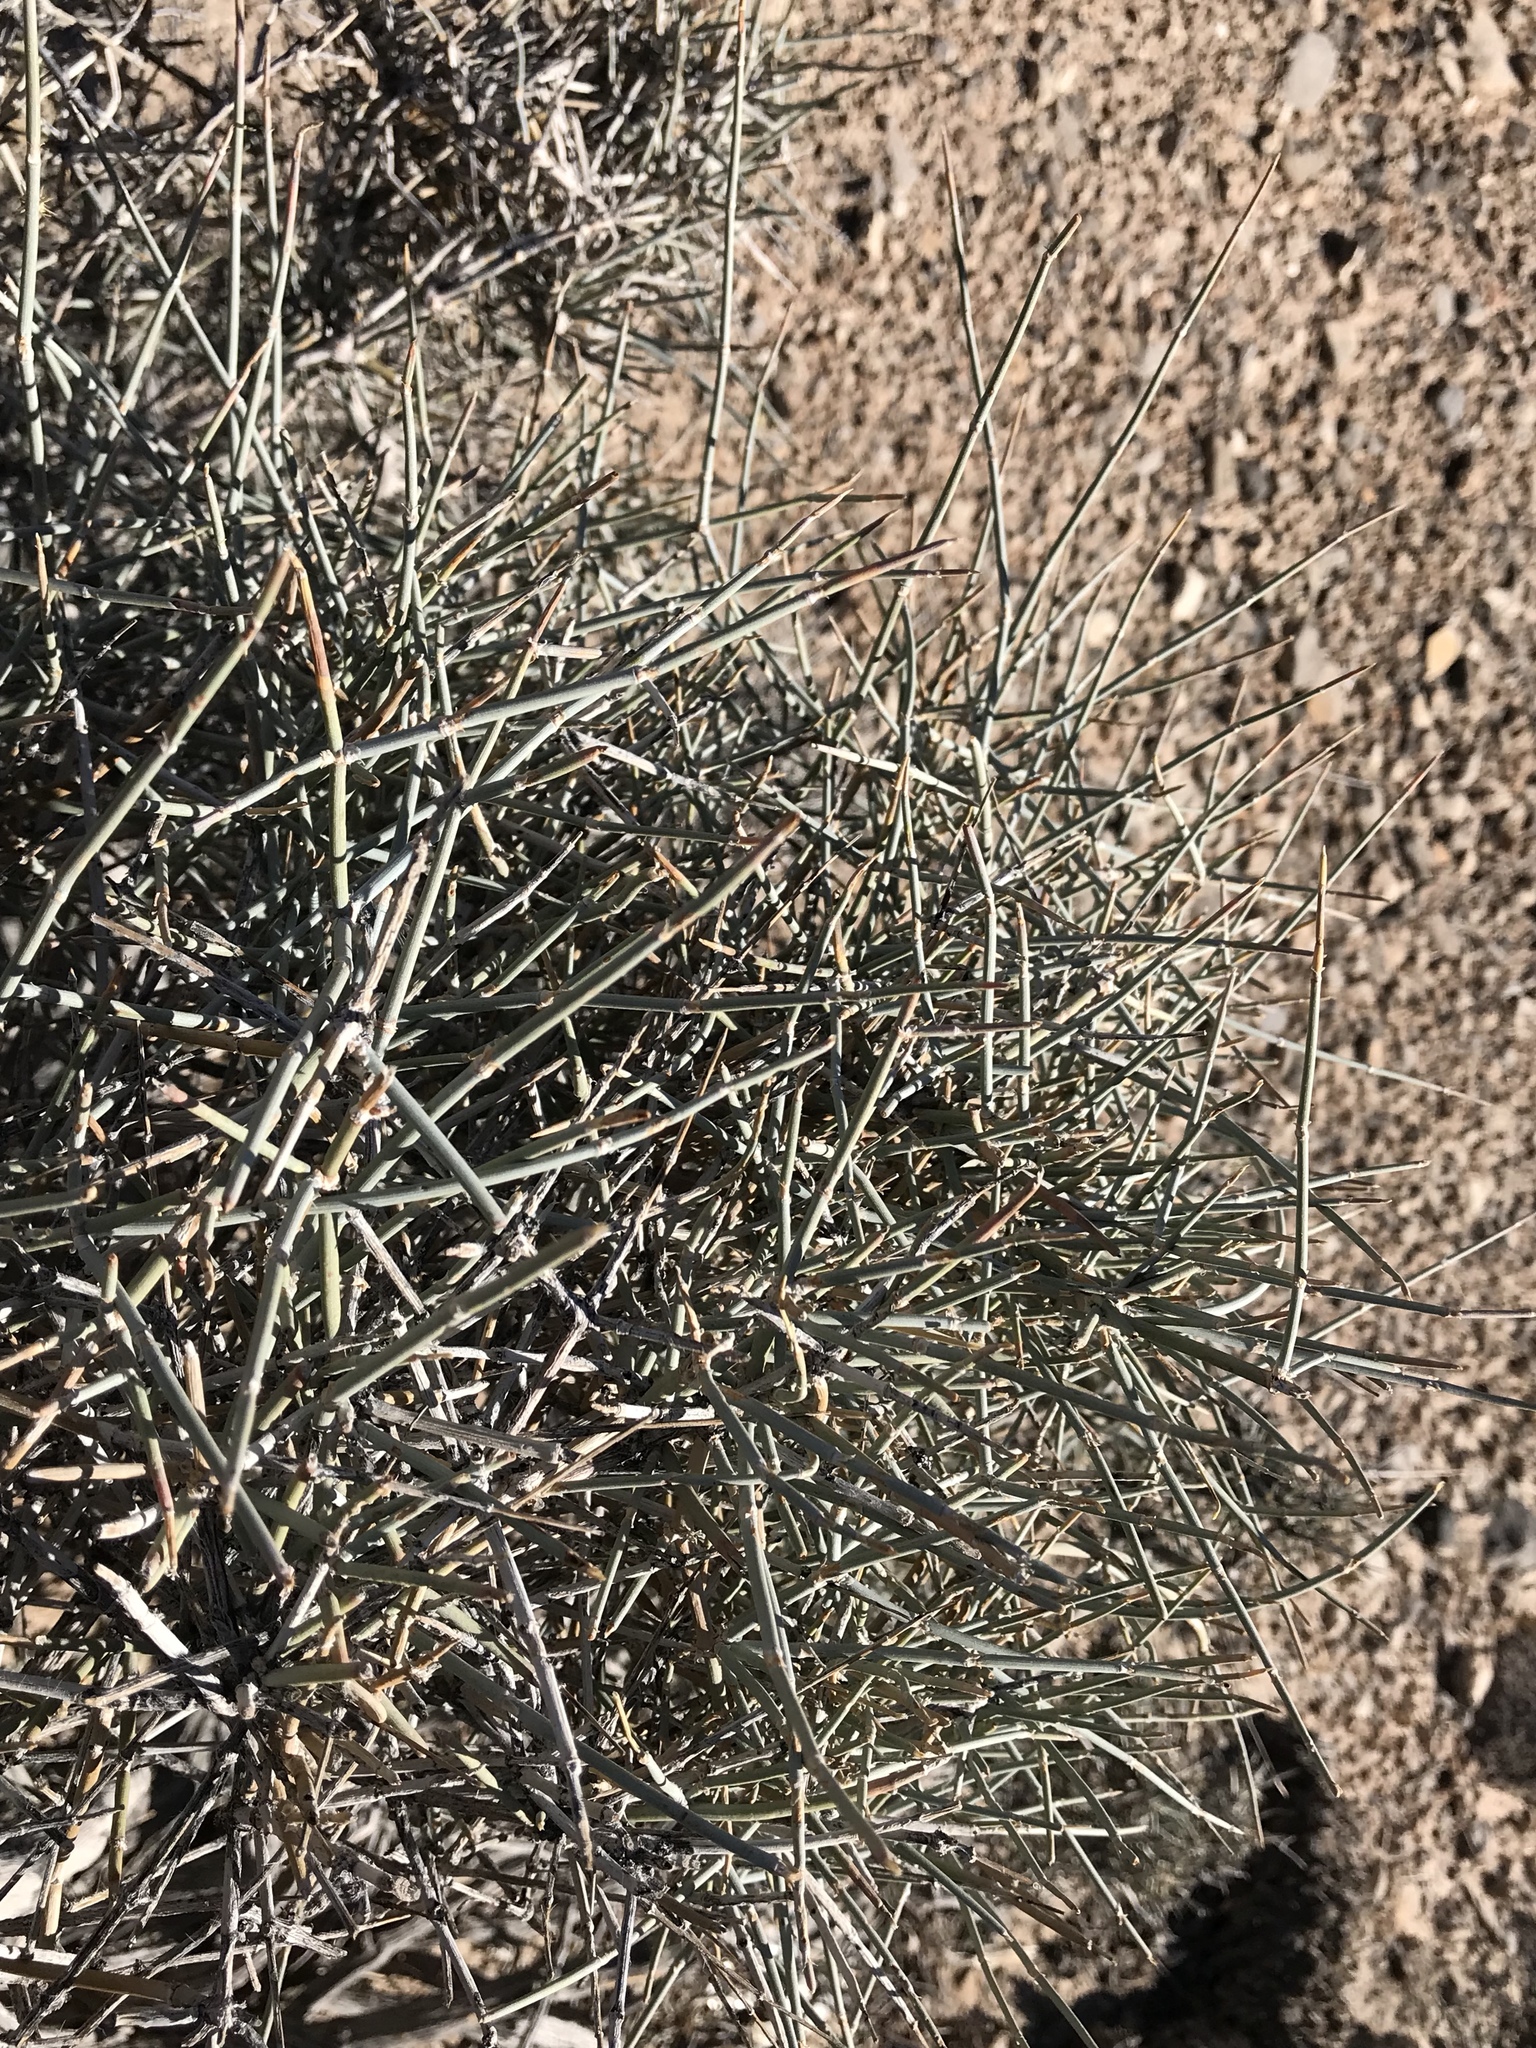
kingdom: Plantae
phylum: Tracheophyta
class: Gnetopsida
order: Ephedrales
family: Ephedraceae
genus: Ephedra
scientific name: Ephedra nevadensis
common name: Gray ephedra
